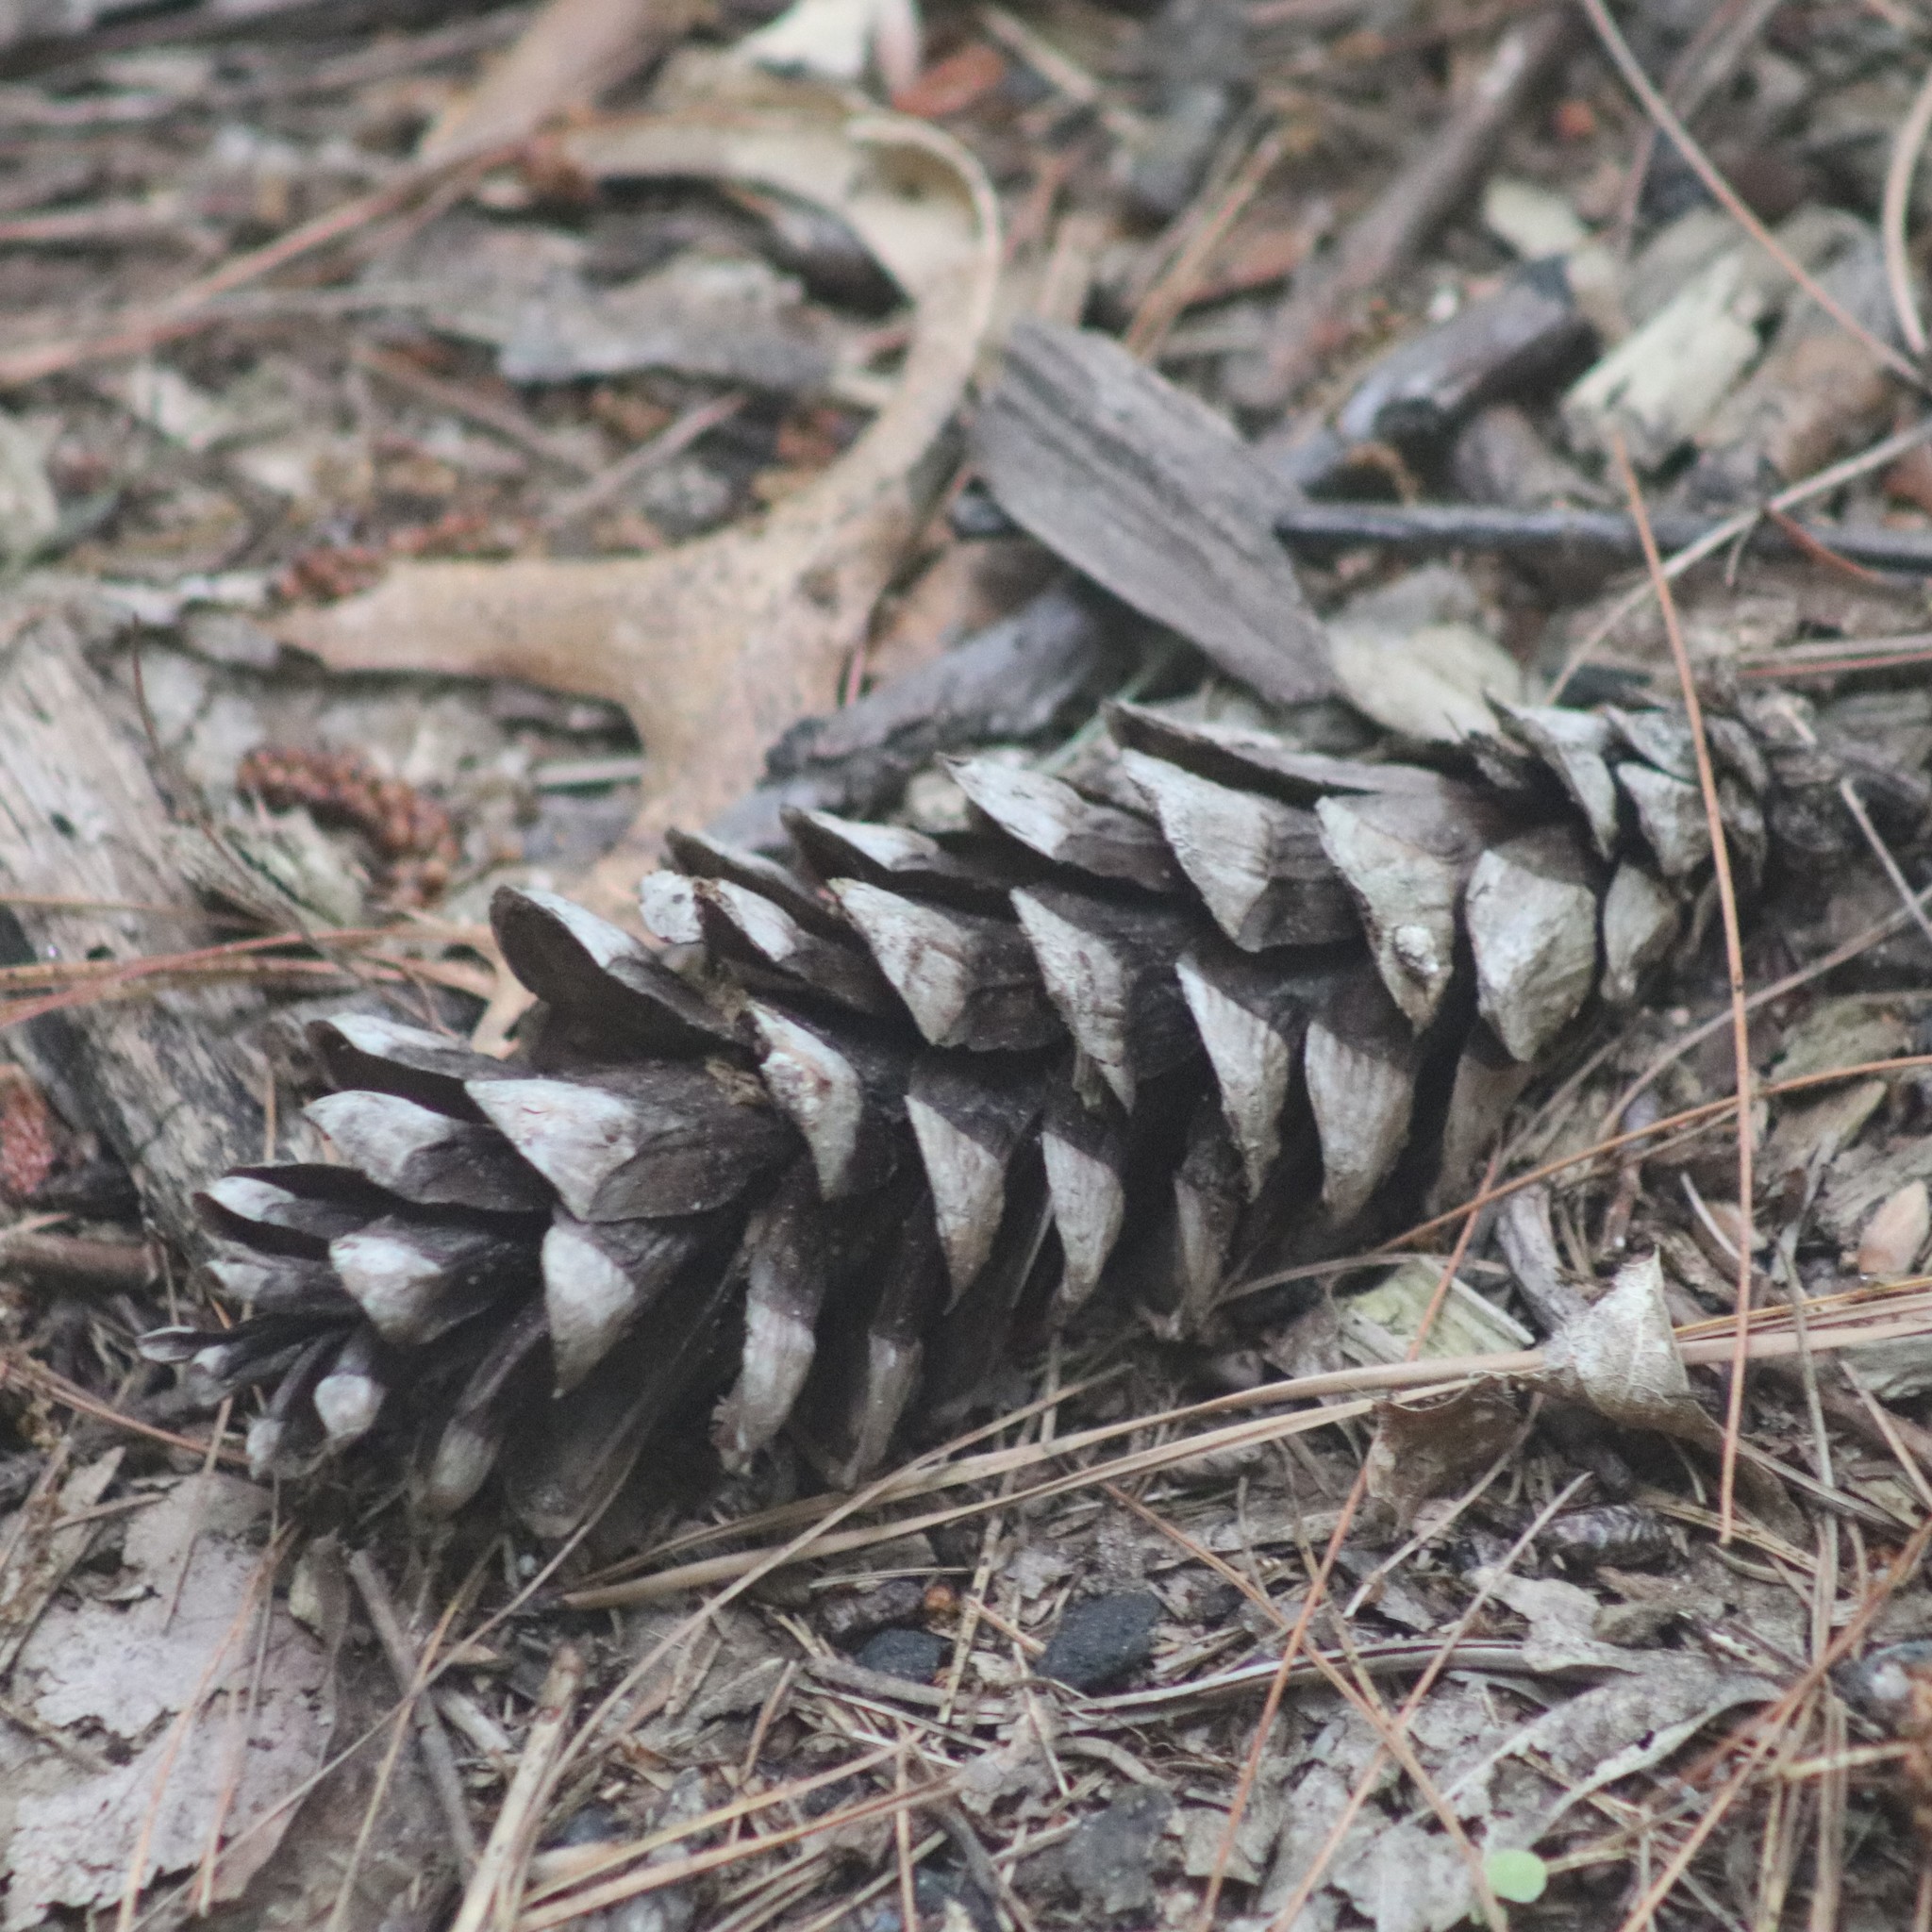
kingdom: Plantae
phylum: Tracheophyta
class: Pinopsida
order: Pinales
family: Pinaceae
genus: Pinus
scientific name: Pinus strobus
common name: Weymouth pine
